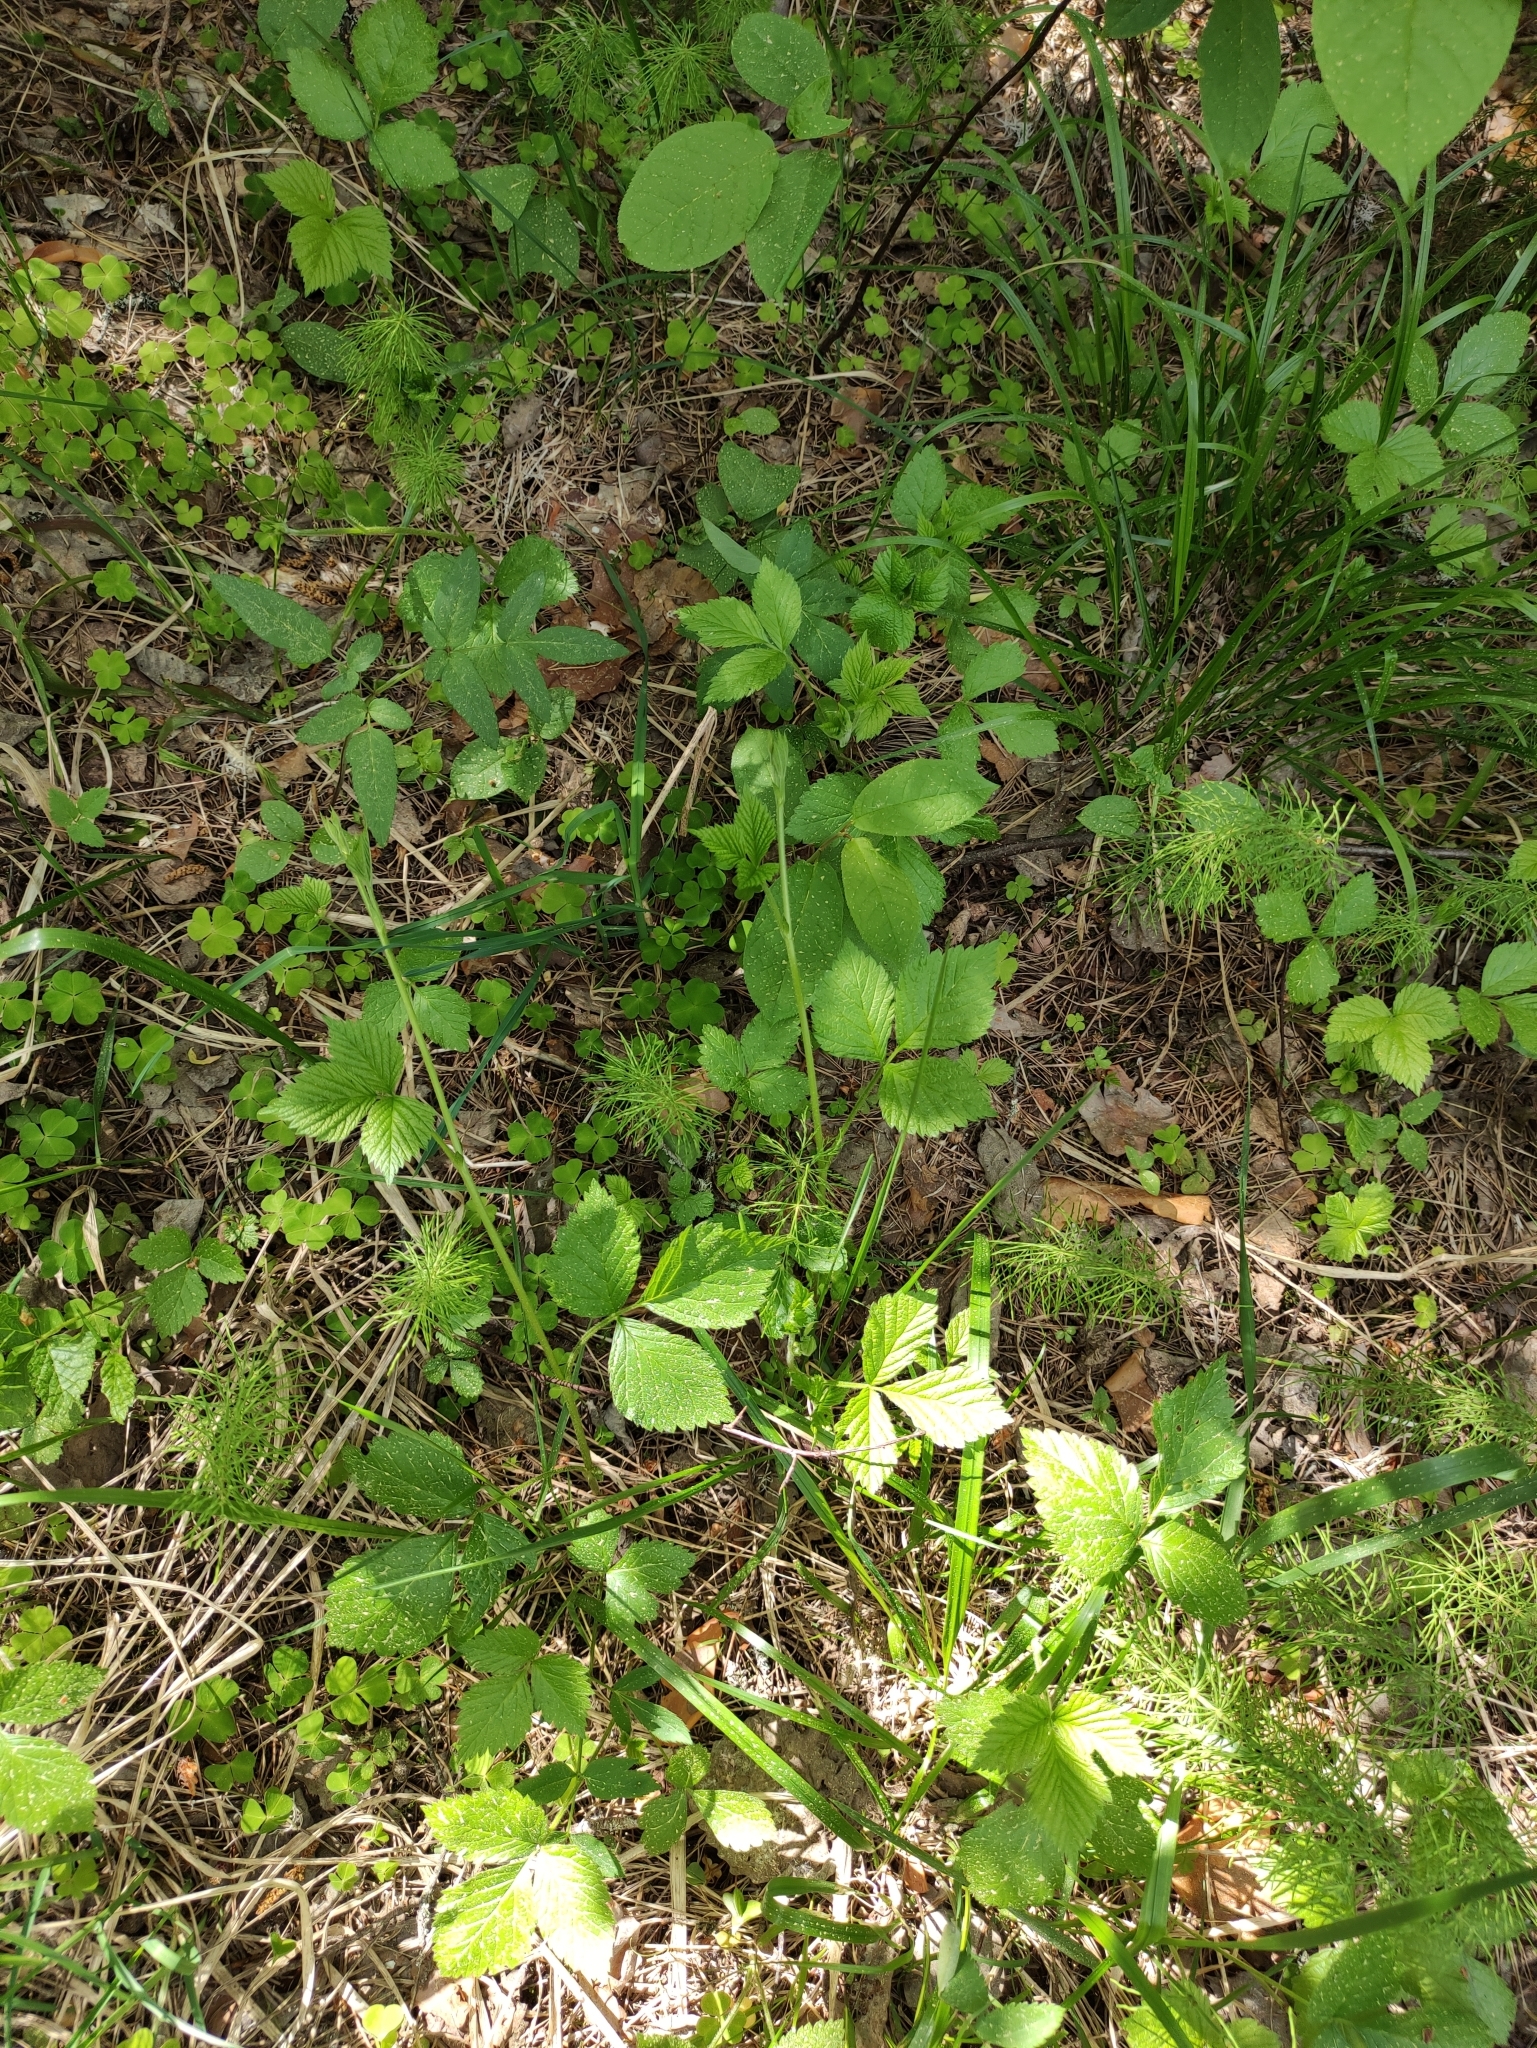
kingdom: Plantae
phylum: Tracheophyta
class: Magnoliopsida
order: Rosales
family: Rosaceae
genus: Rubus
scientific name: Rubus saxatilis
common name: Stone bramble
